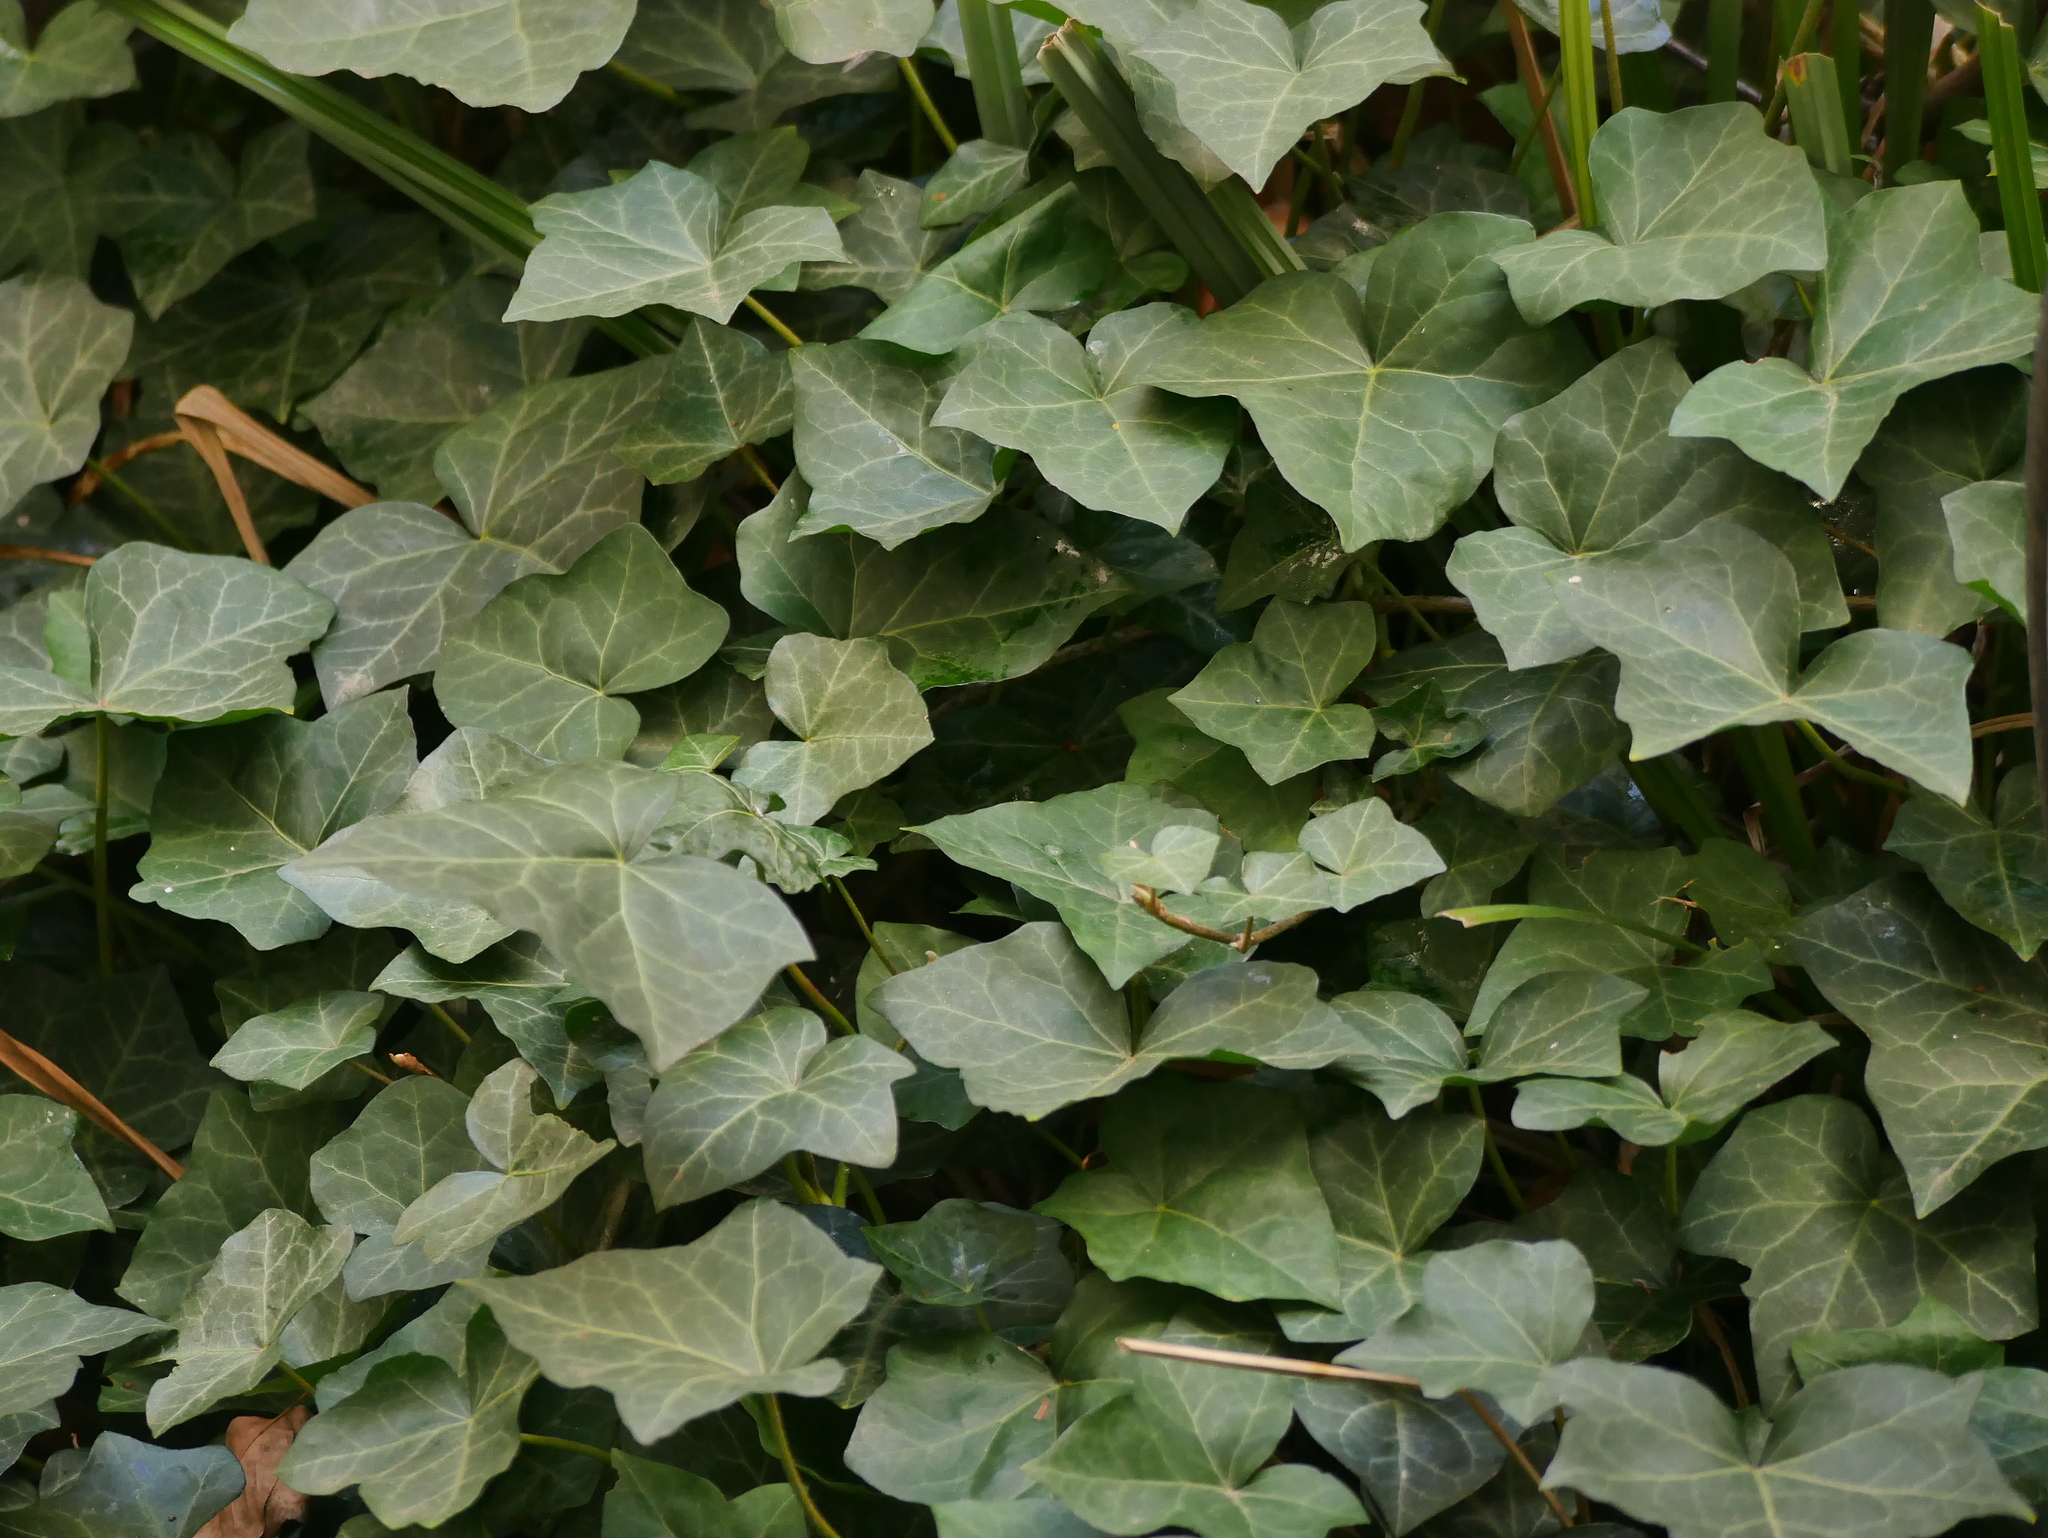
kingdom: Plantae
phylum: Tracheophyta
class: Magnoliopsida
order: Apiales
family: Araliaceae
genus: Hedera
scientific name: Hedera helix
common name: Ivy
